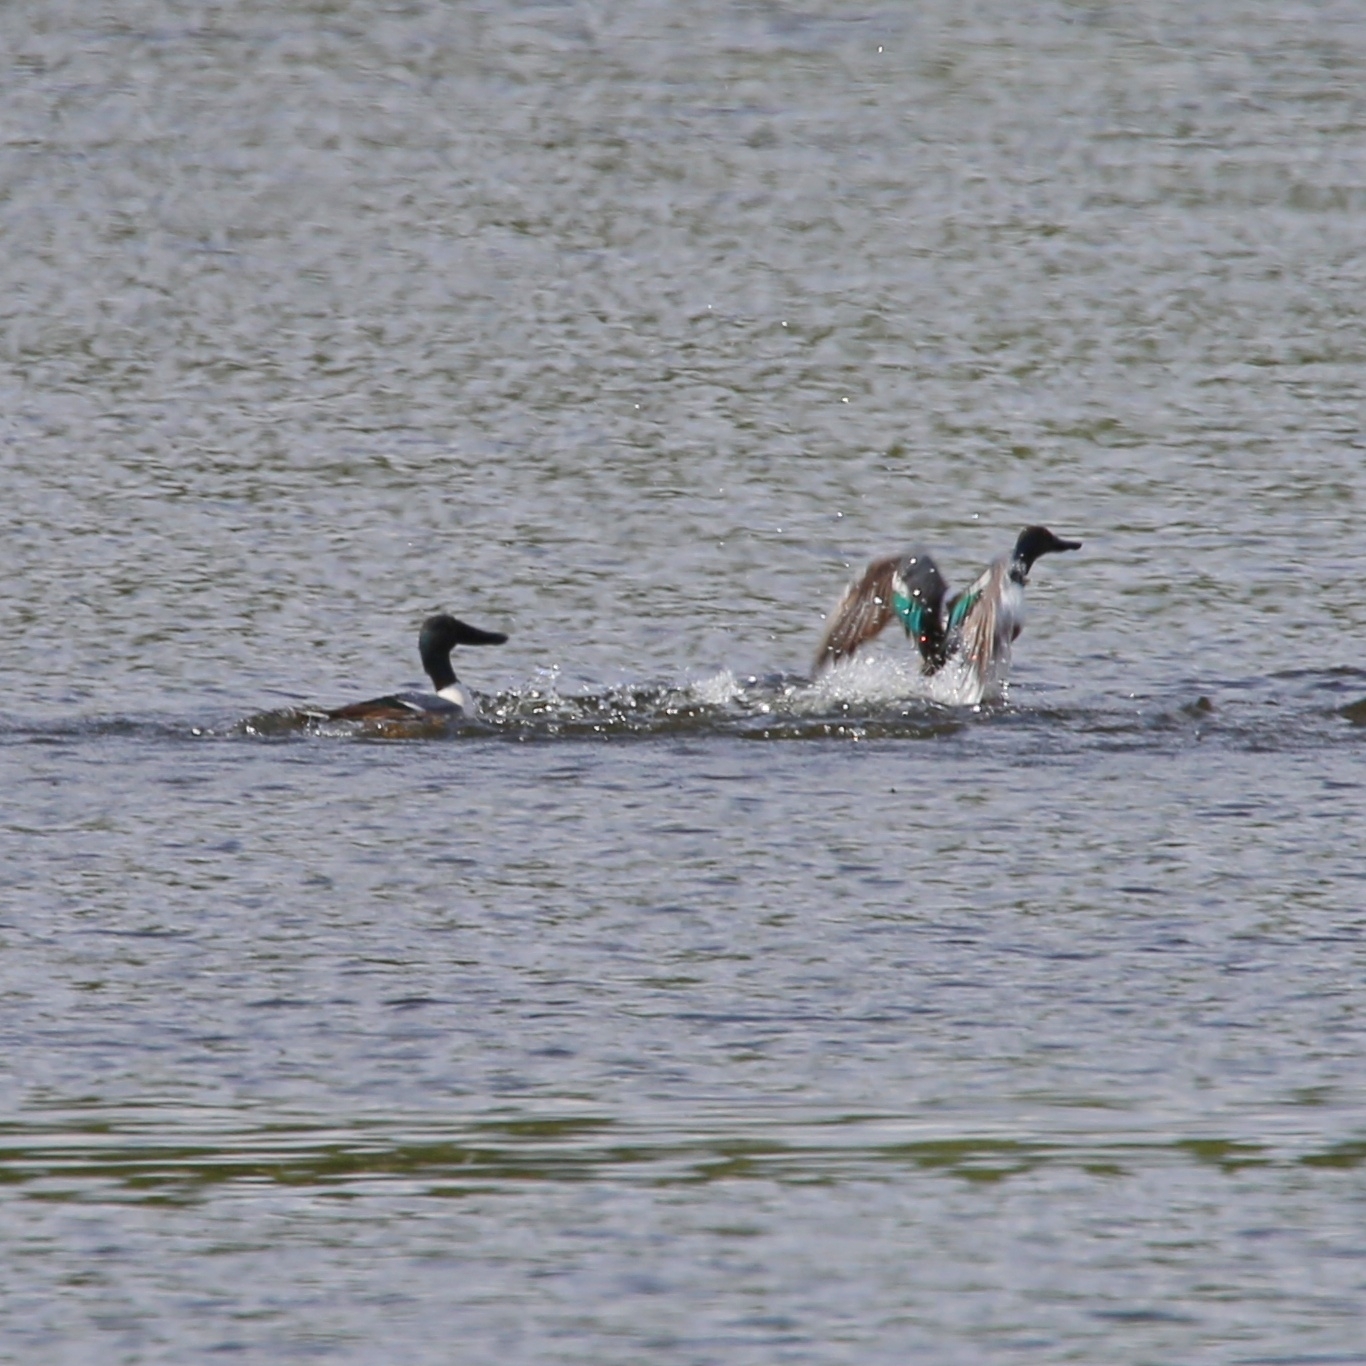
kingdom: Animalia
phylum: Chordata
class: Aves
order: Anseriformes
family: Anatidae
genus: Spatula
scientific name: Spatula clypeata
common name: Northern shoveler
